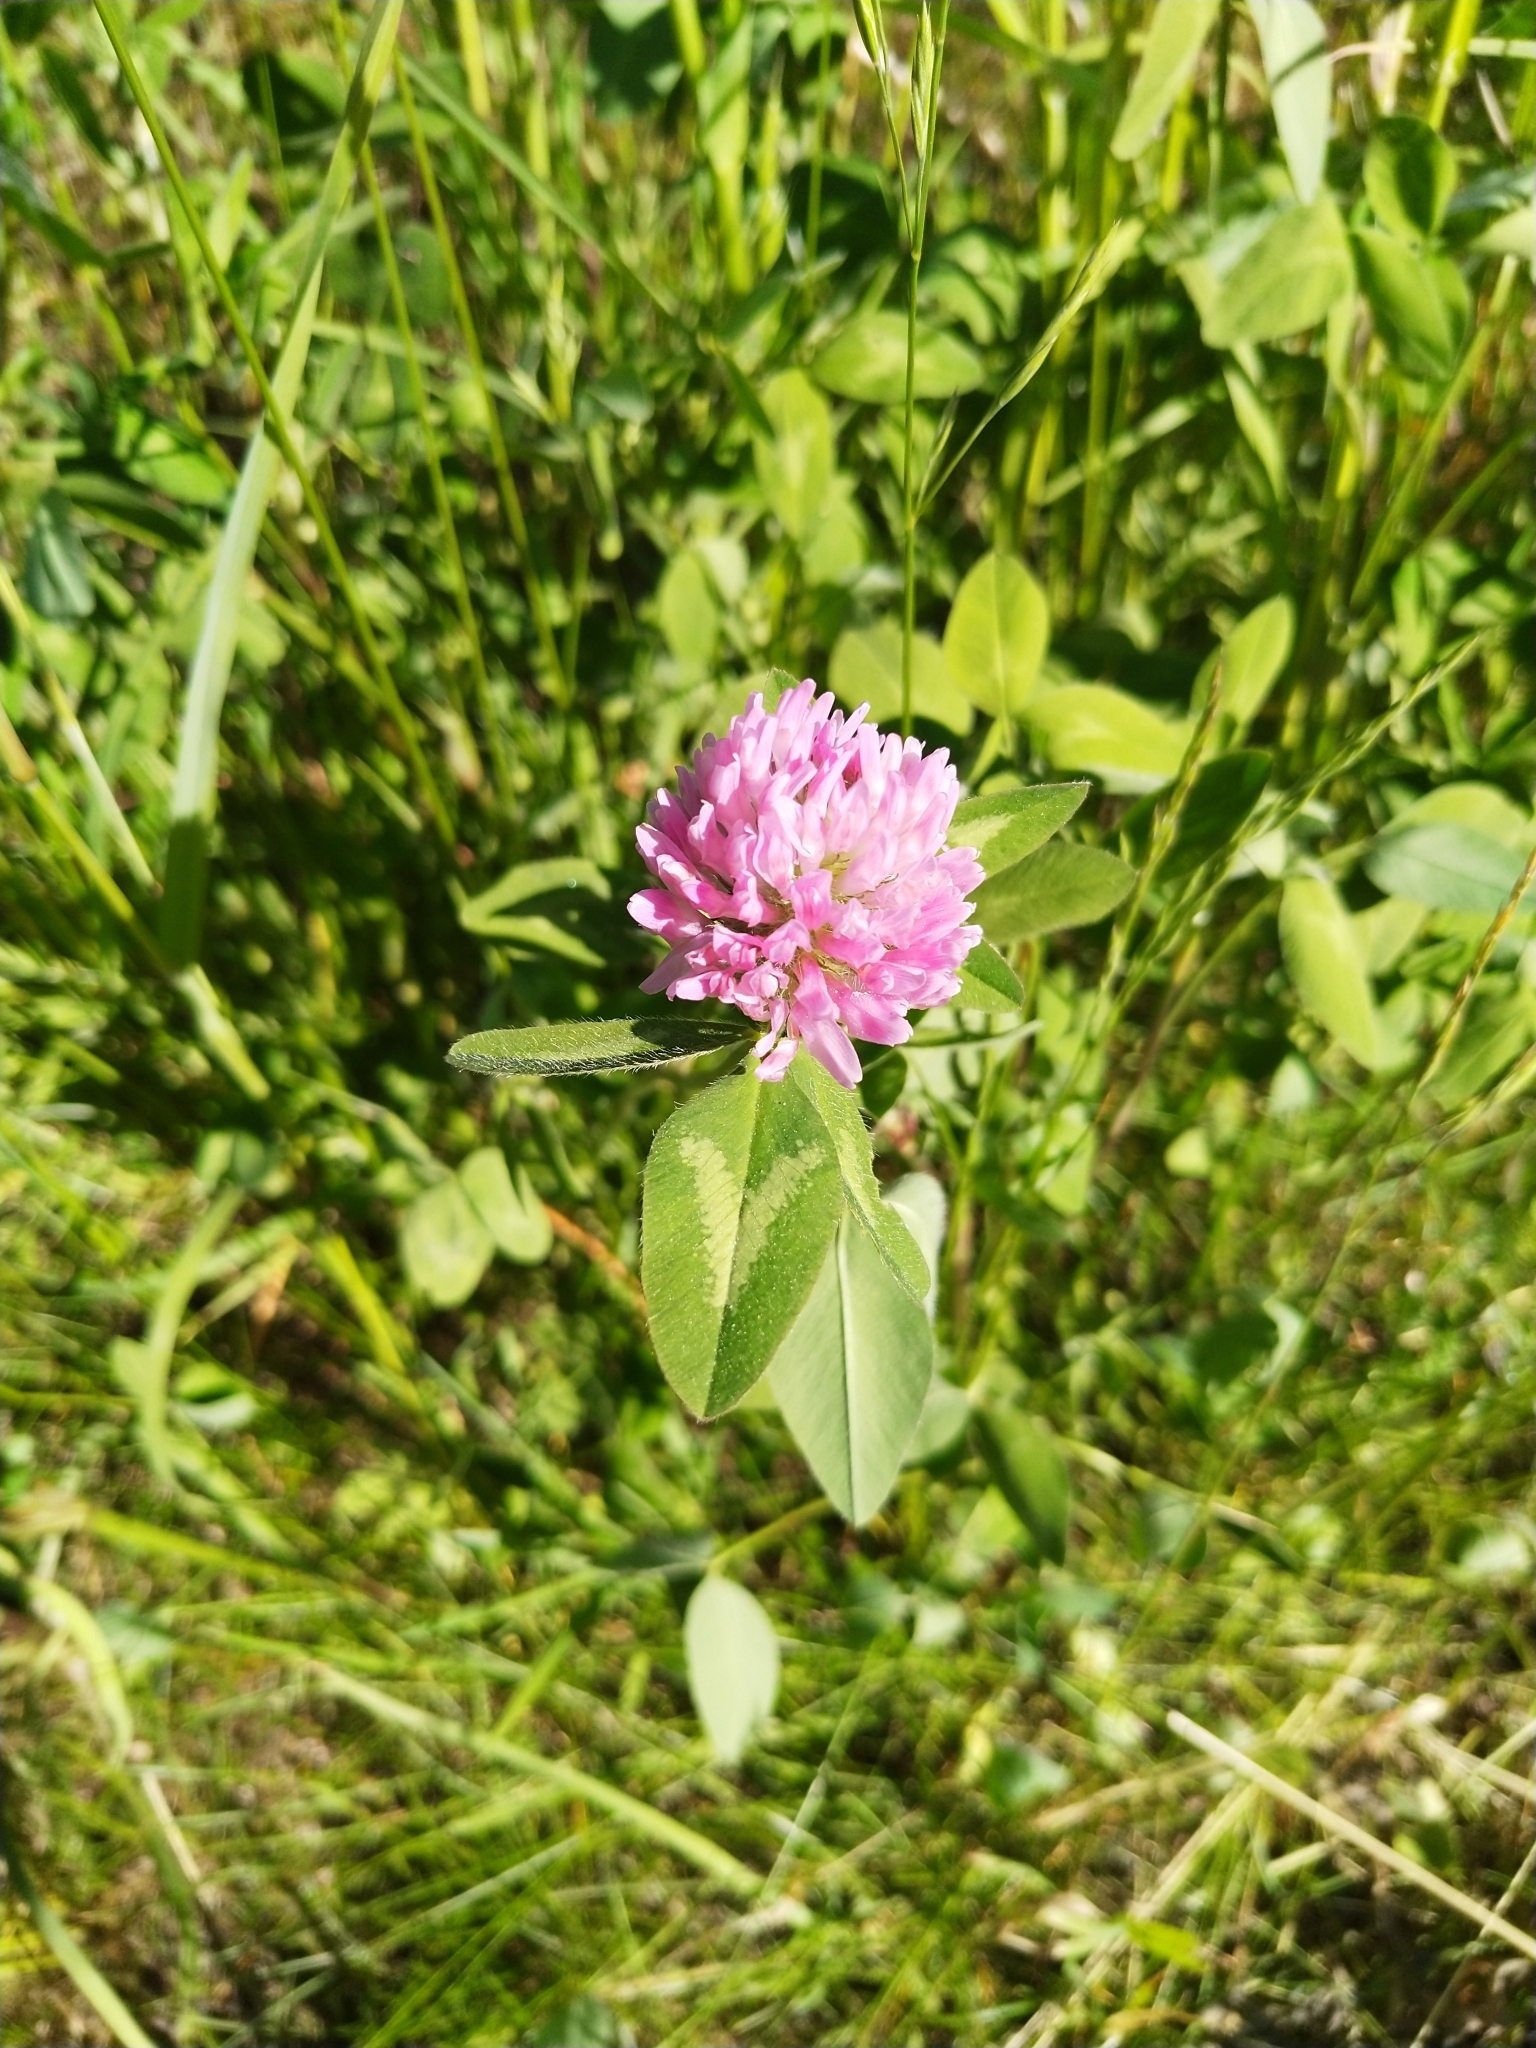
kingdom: Plantae
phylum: Tracheophyta
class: Magnoliopsida
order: Fabales
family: Fabaceae
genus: Trifolium
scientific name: Trifolium pratense
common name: Red clover
